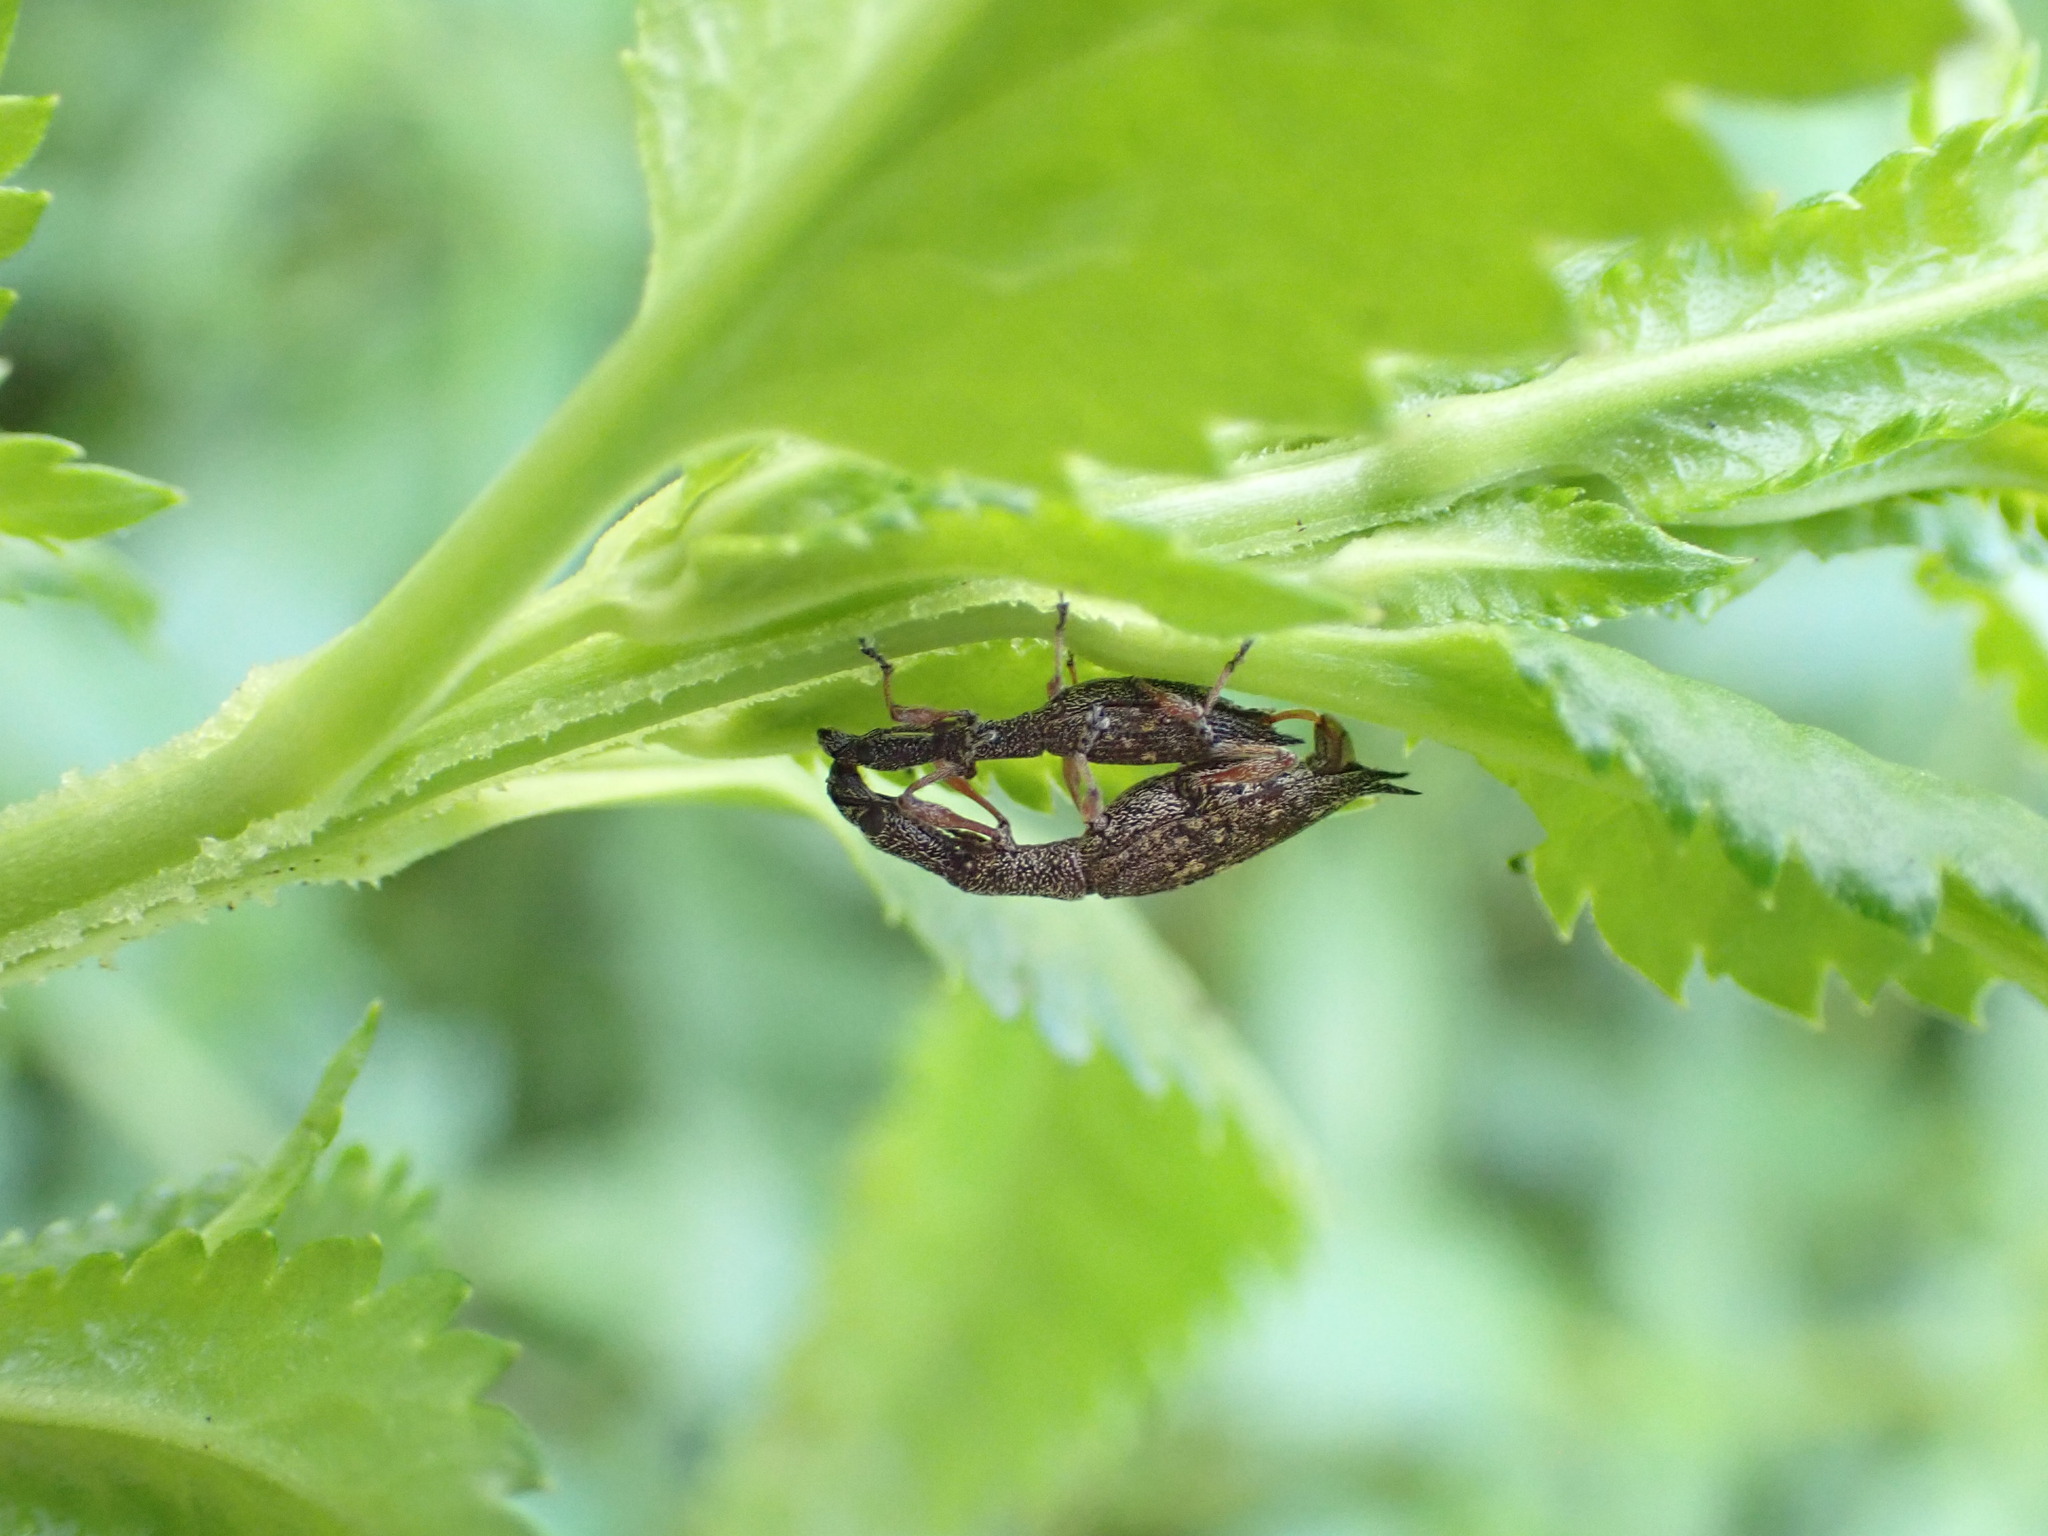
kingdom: Animalia
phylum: Arthropoda
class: Insecta
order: Coleoptera
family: Curculionidae
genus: Rhadinosomus
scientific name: Rhadinosomus acuminatus
